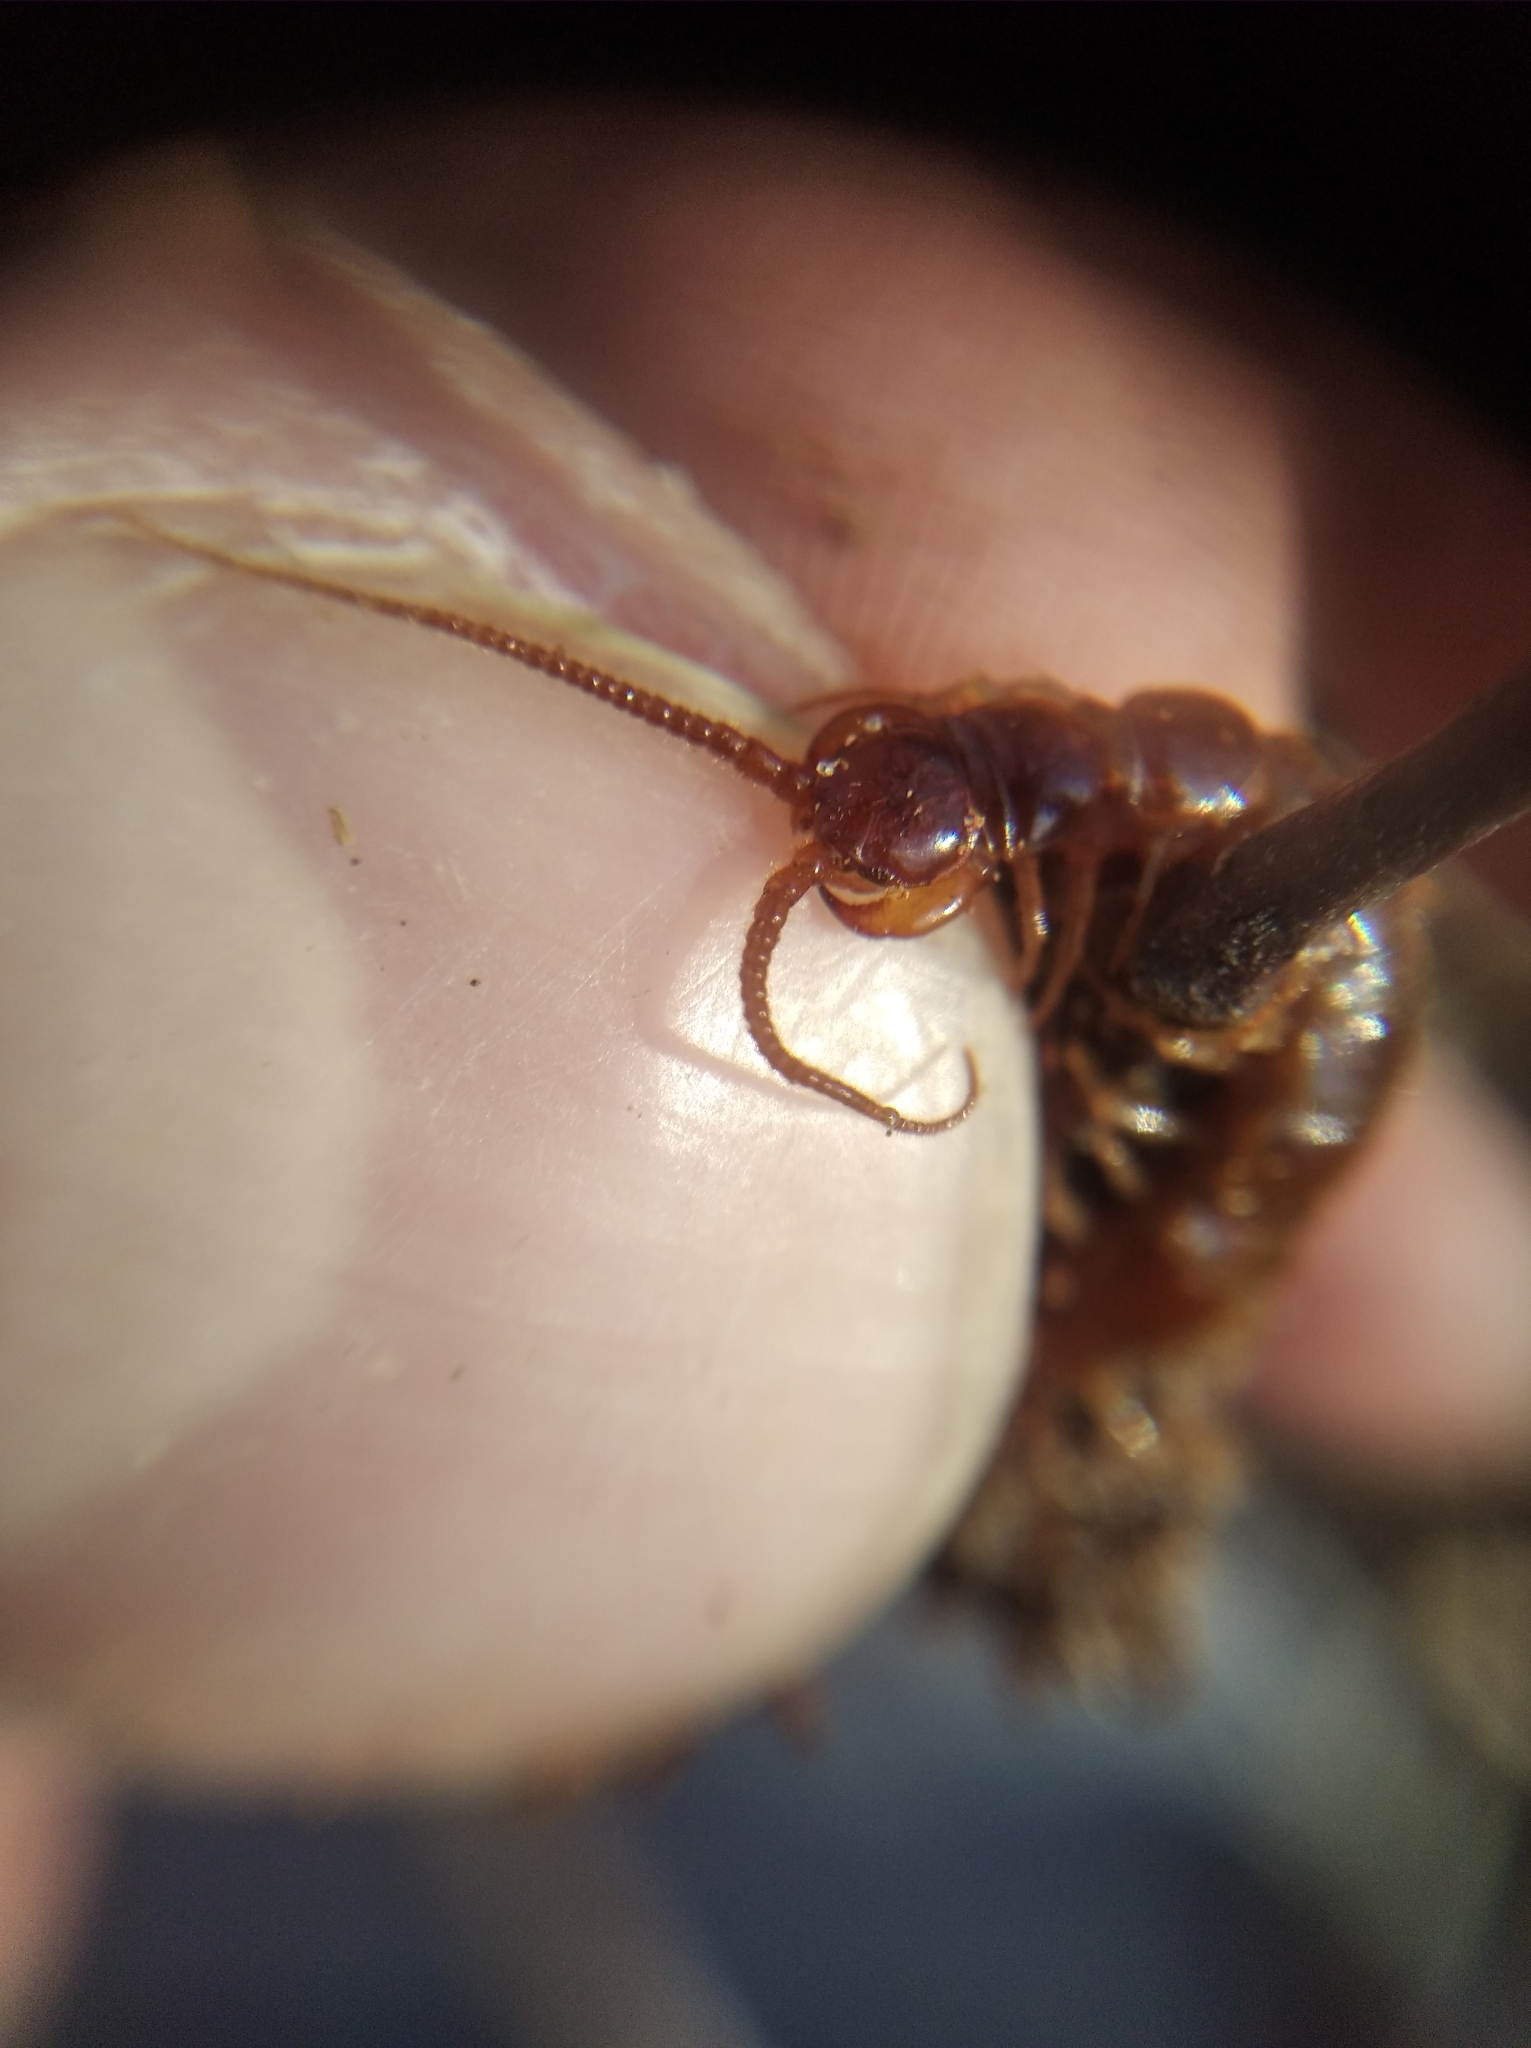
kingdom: Animalia
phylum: Arthropoda
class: Chilopoda
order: Lithobiomorpha
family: Lithobiidae
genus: Lithobius
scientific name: Lithobius forficatus
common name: Centipede
